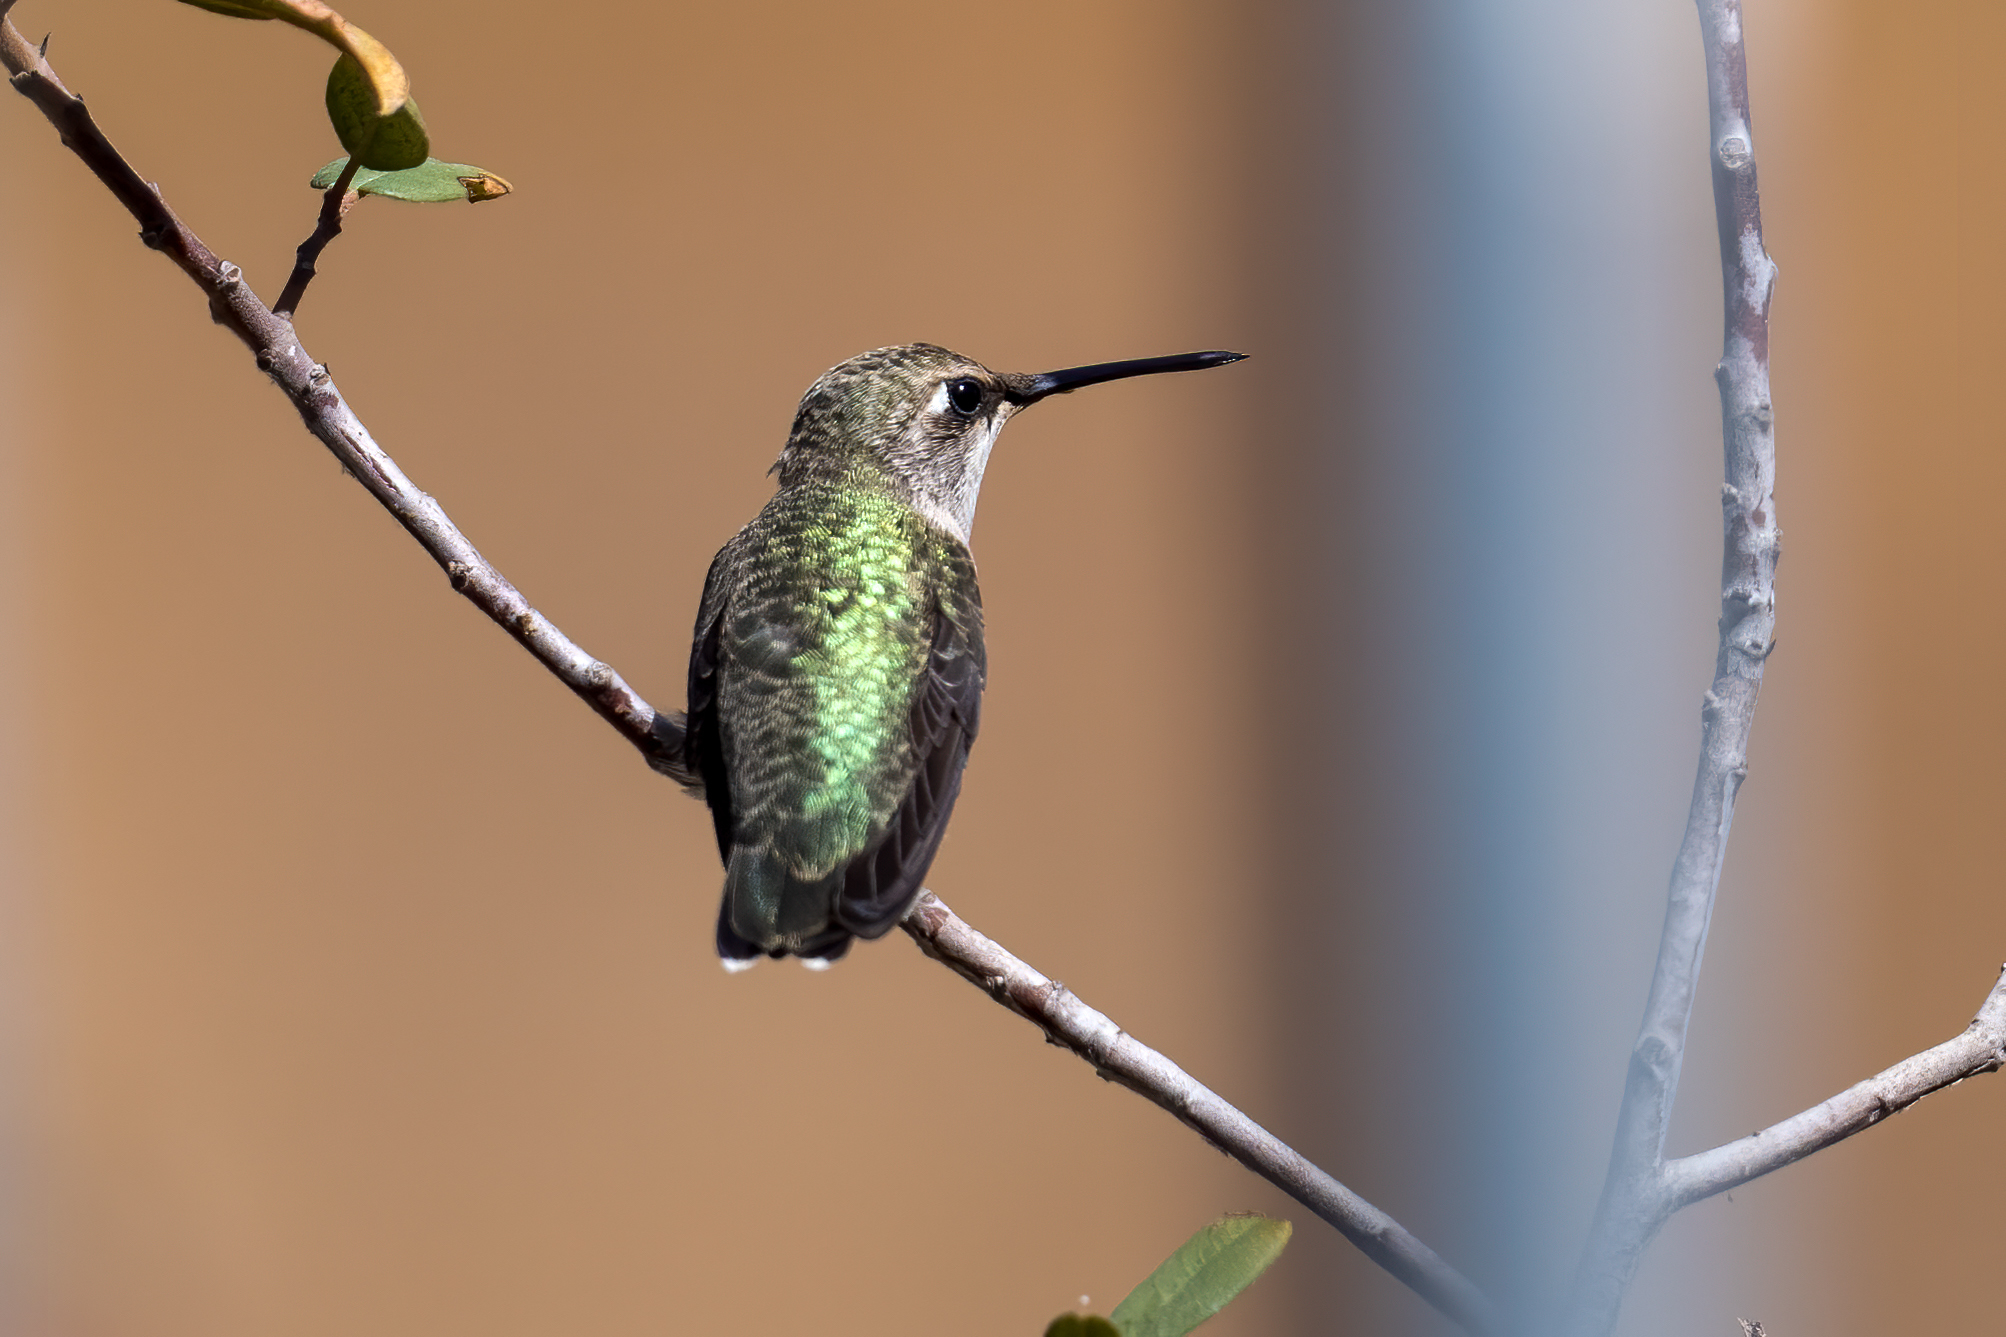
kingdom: Animalia
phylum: Chordata
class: Aves
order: Apodiformes
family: Trochilidae
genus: Archilochus
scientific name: Archilochus alexandri
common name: Black-chinned hummingbird
